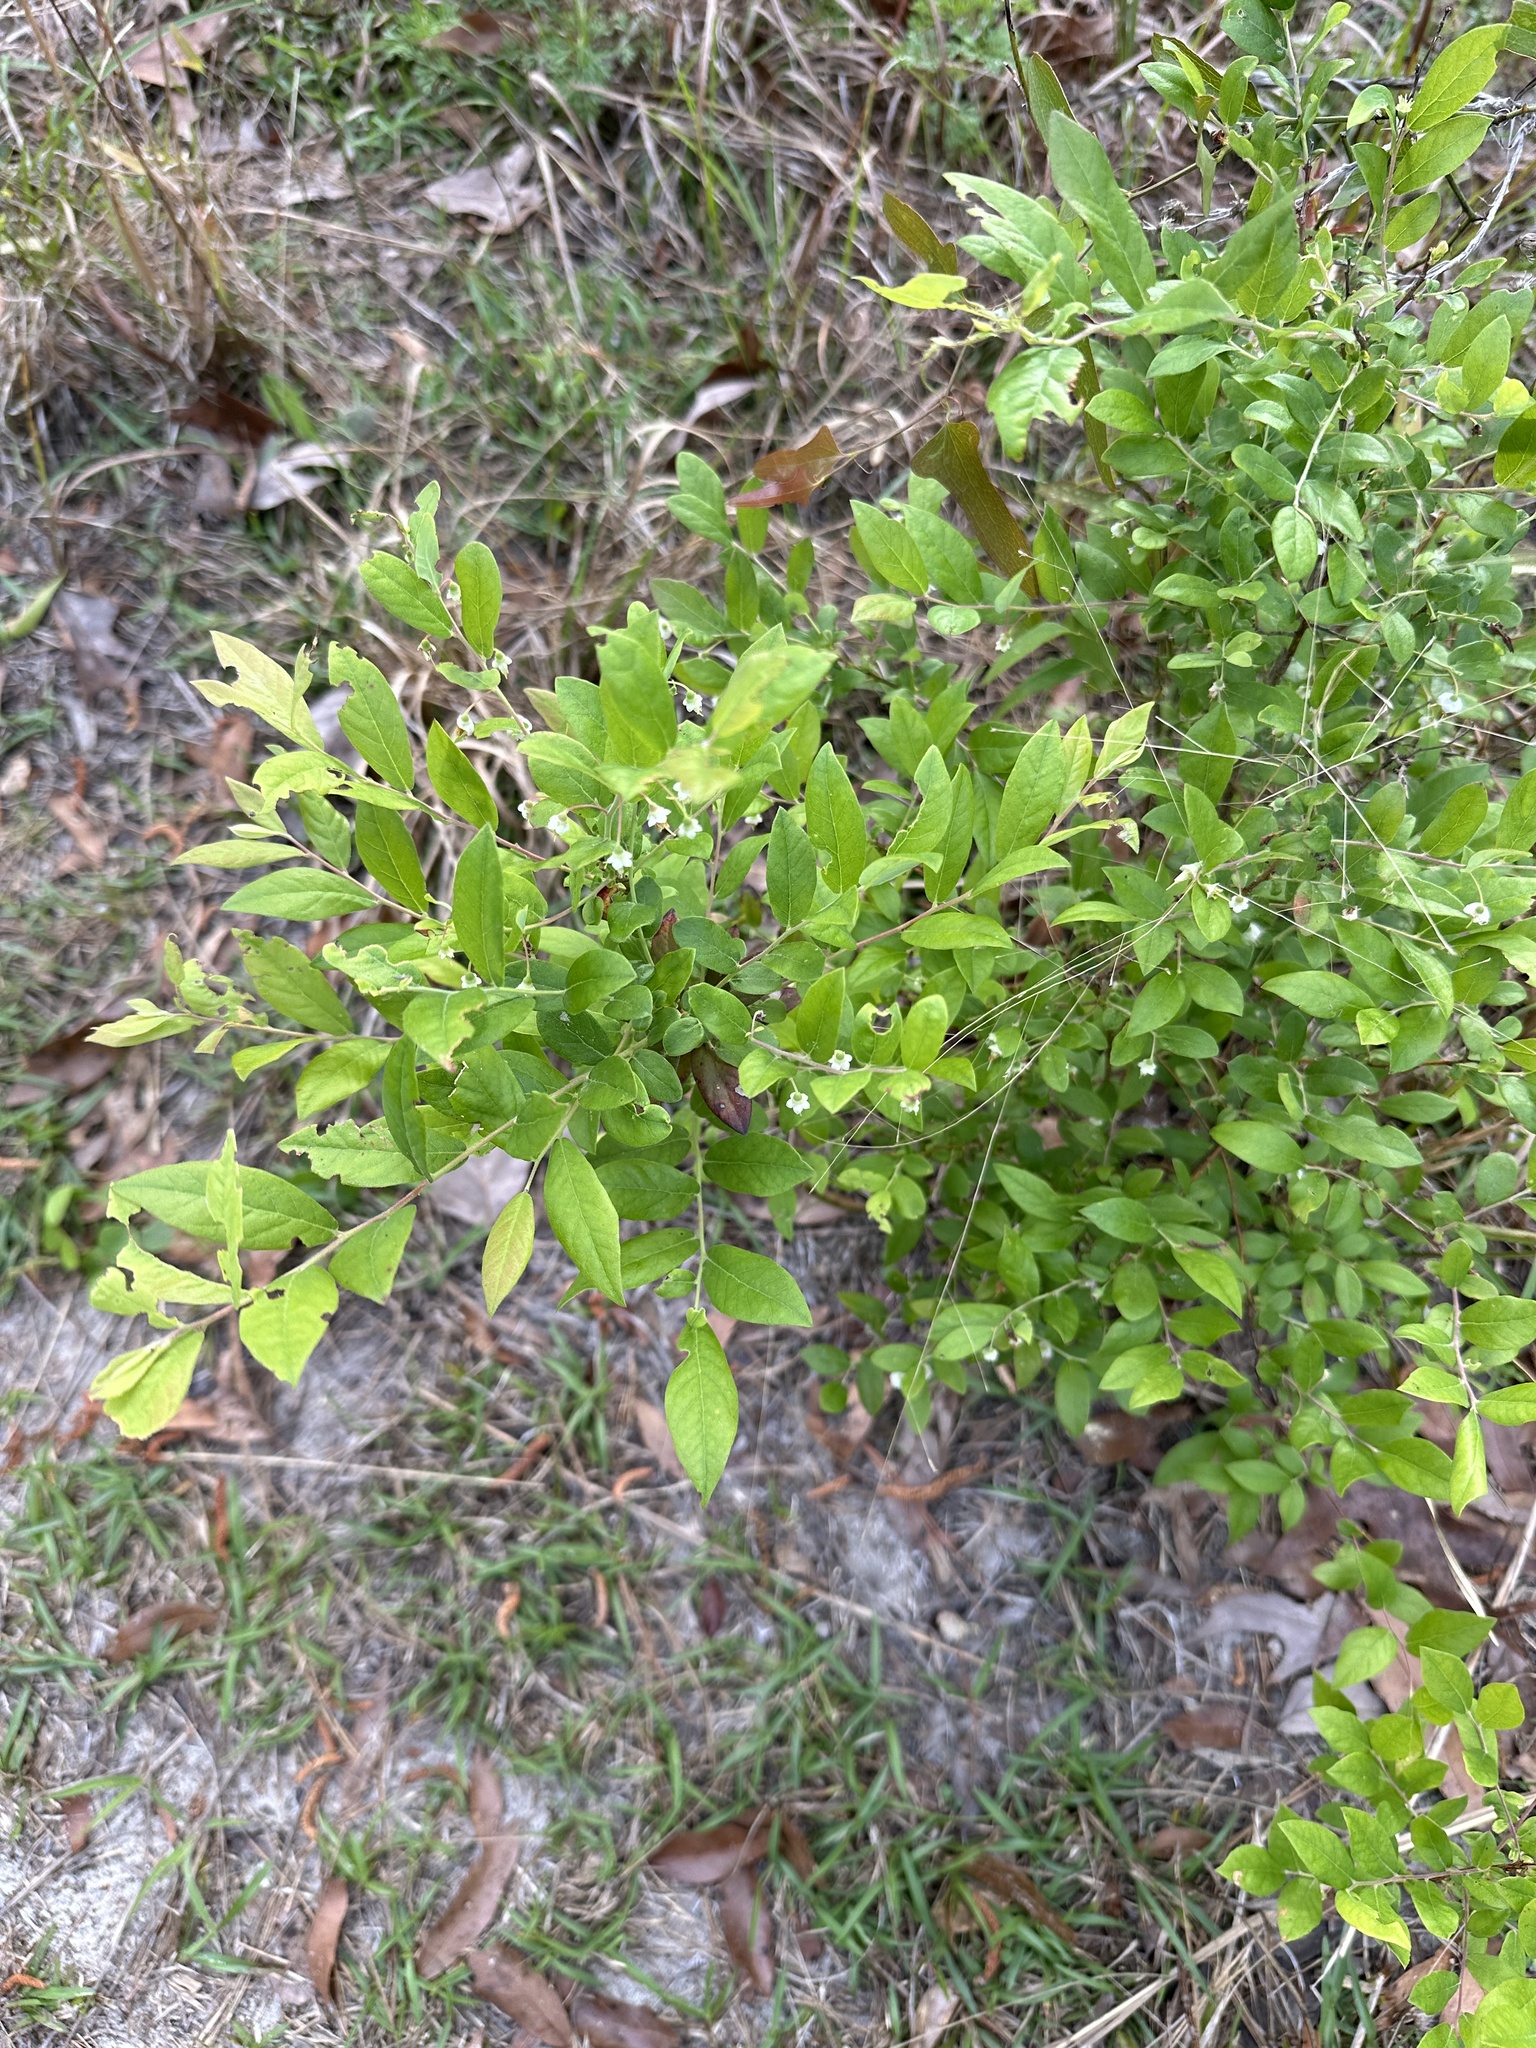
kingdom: Plantae
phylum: Tracheophyta
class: Magnoliopsida
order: Ericales
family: Ericaceae
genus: Vaccinium
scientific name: Vaccinium stamineum
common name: Deerberry
